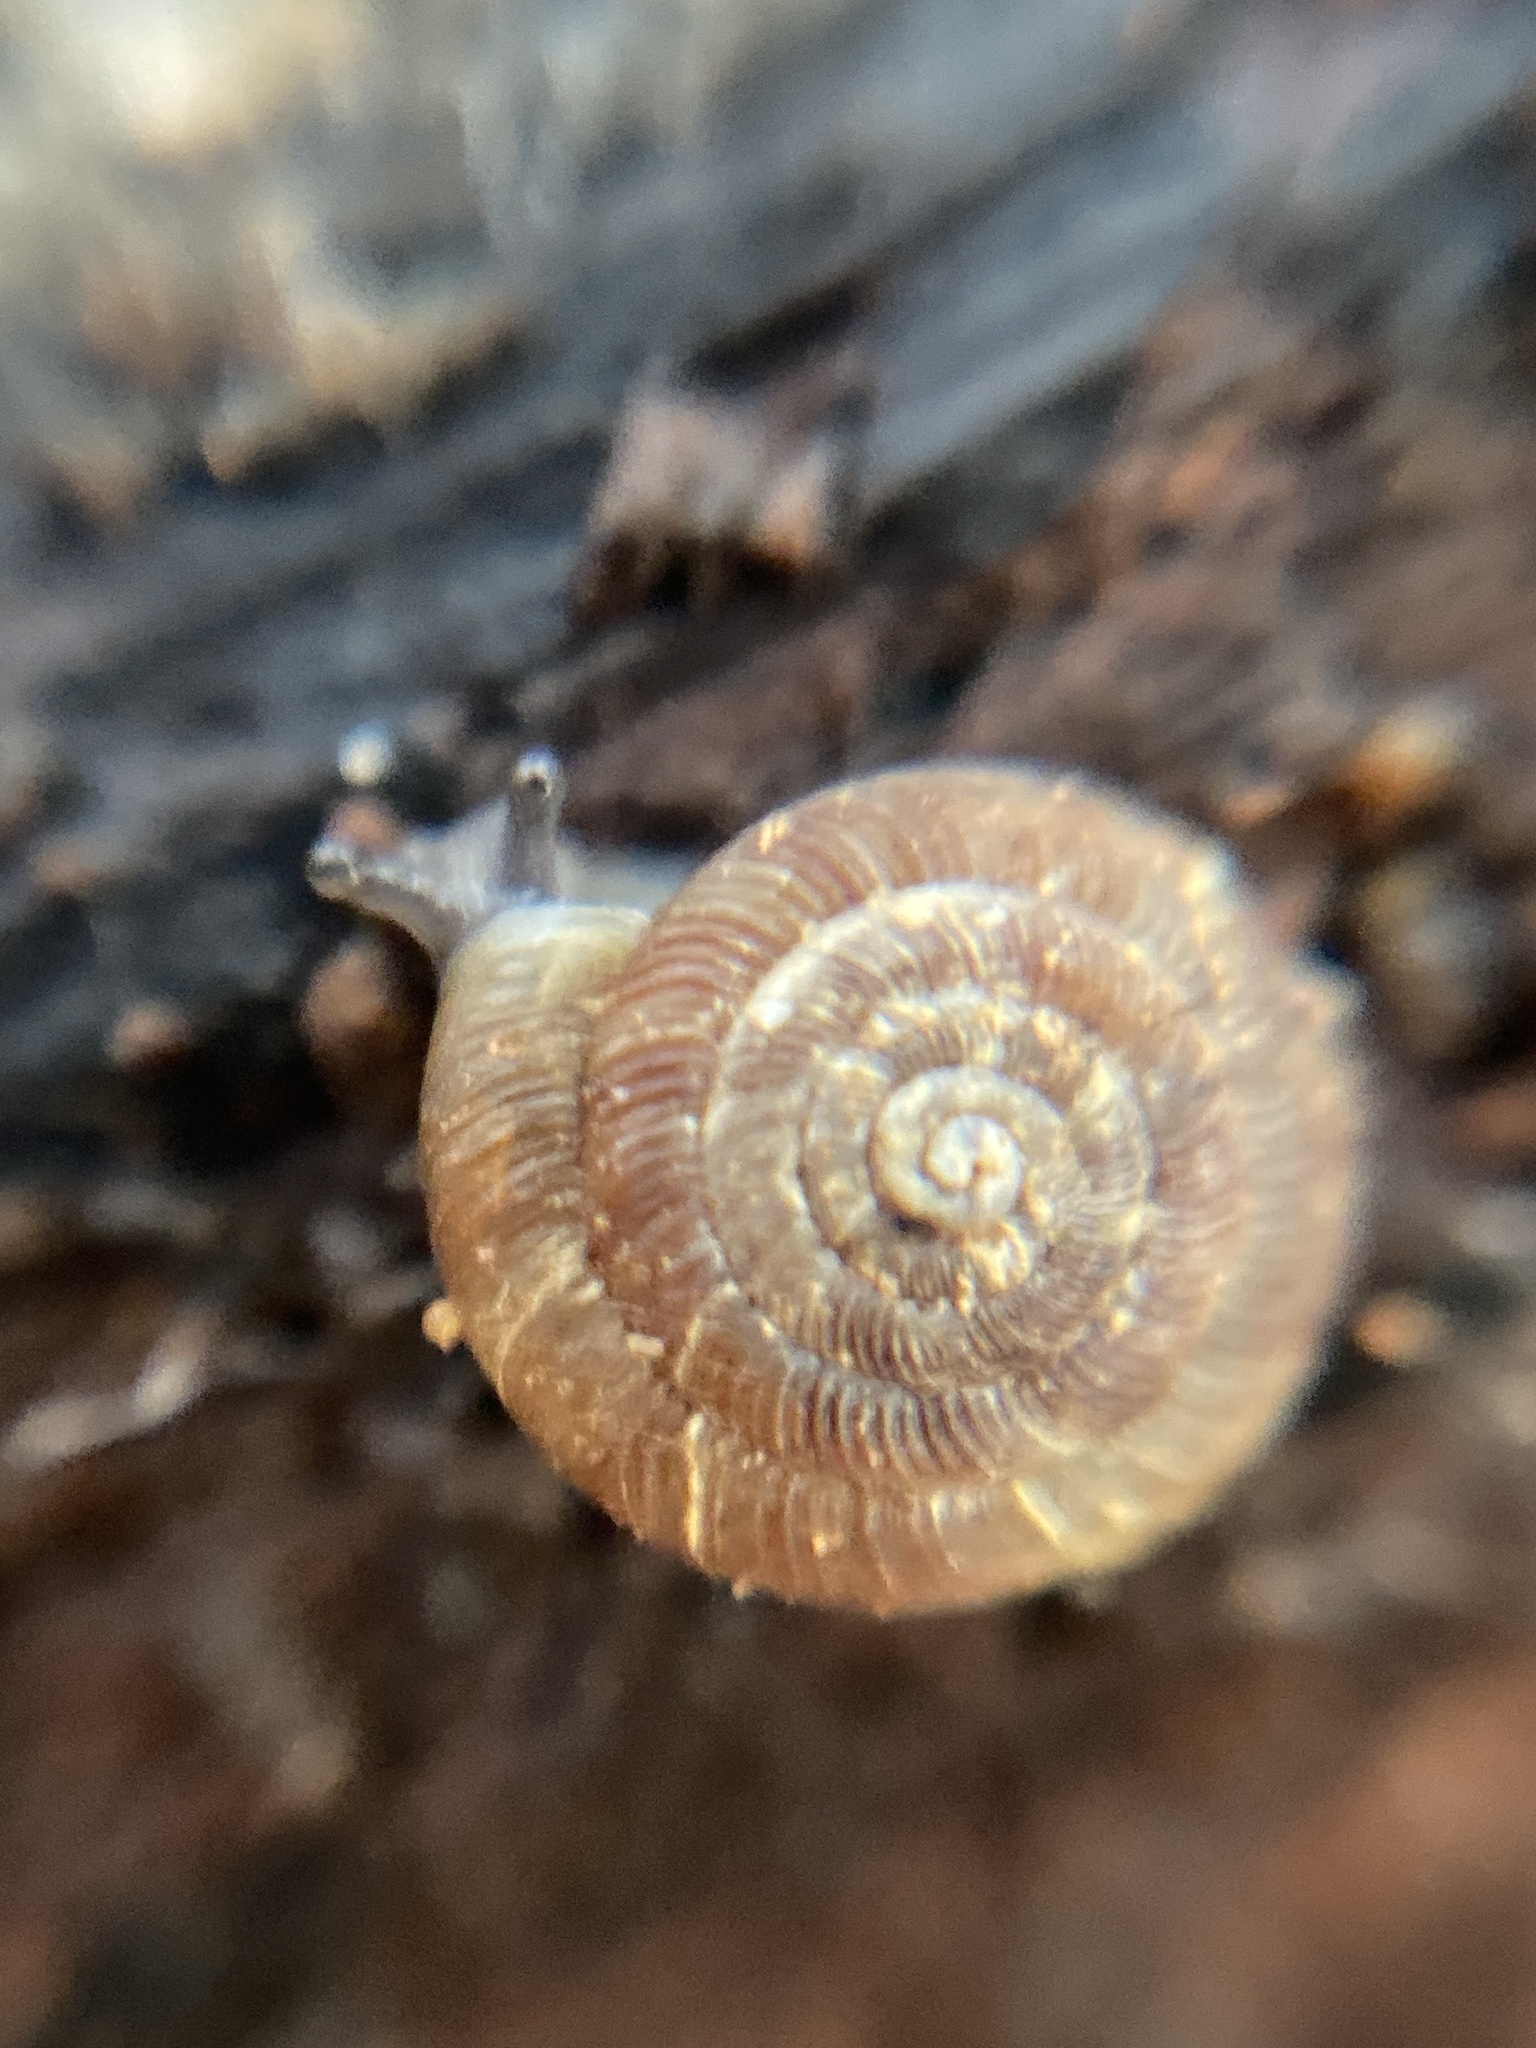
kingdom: Animalia
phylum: Mollusca
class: Gastropoda
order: Stylommatophora
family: Discidae
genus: Discus
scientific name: Discus rotundatus
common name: Rounded snail
